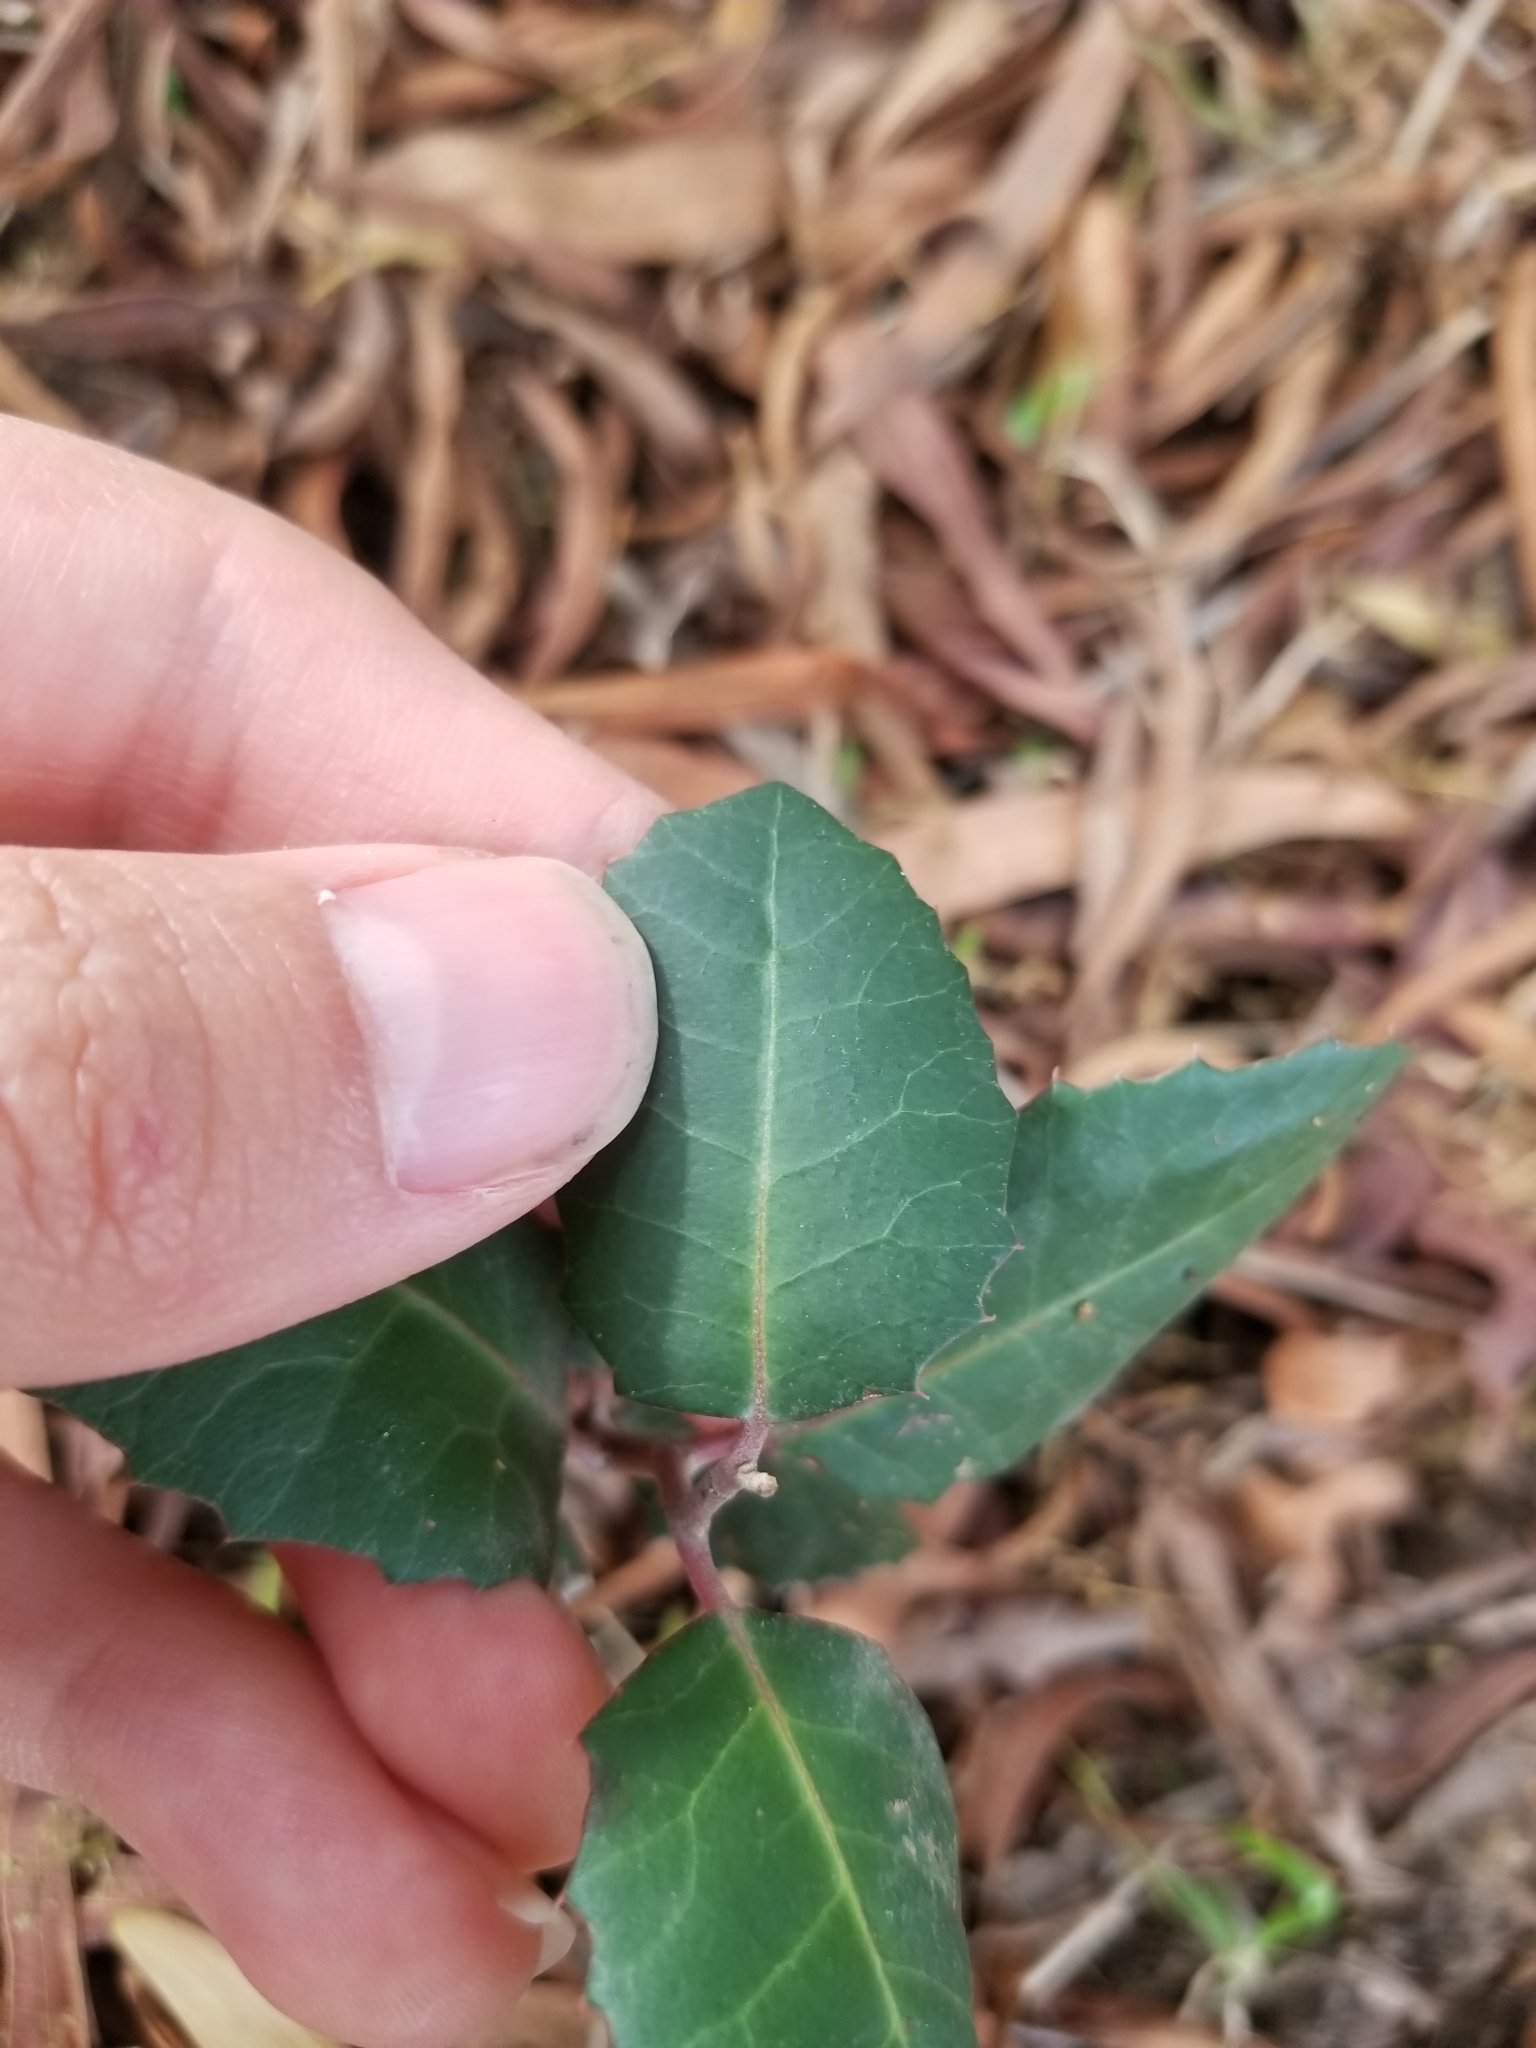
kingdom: Plantae
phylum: Tracheophyta
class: Magnoliopsida
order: Sapindales
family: Anacardiaceae
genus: Rhus
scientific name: Rhus integrifolia
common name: Lemonade sumac
